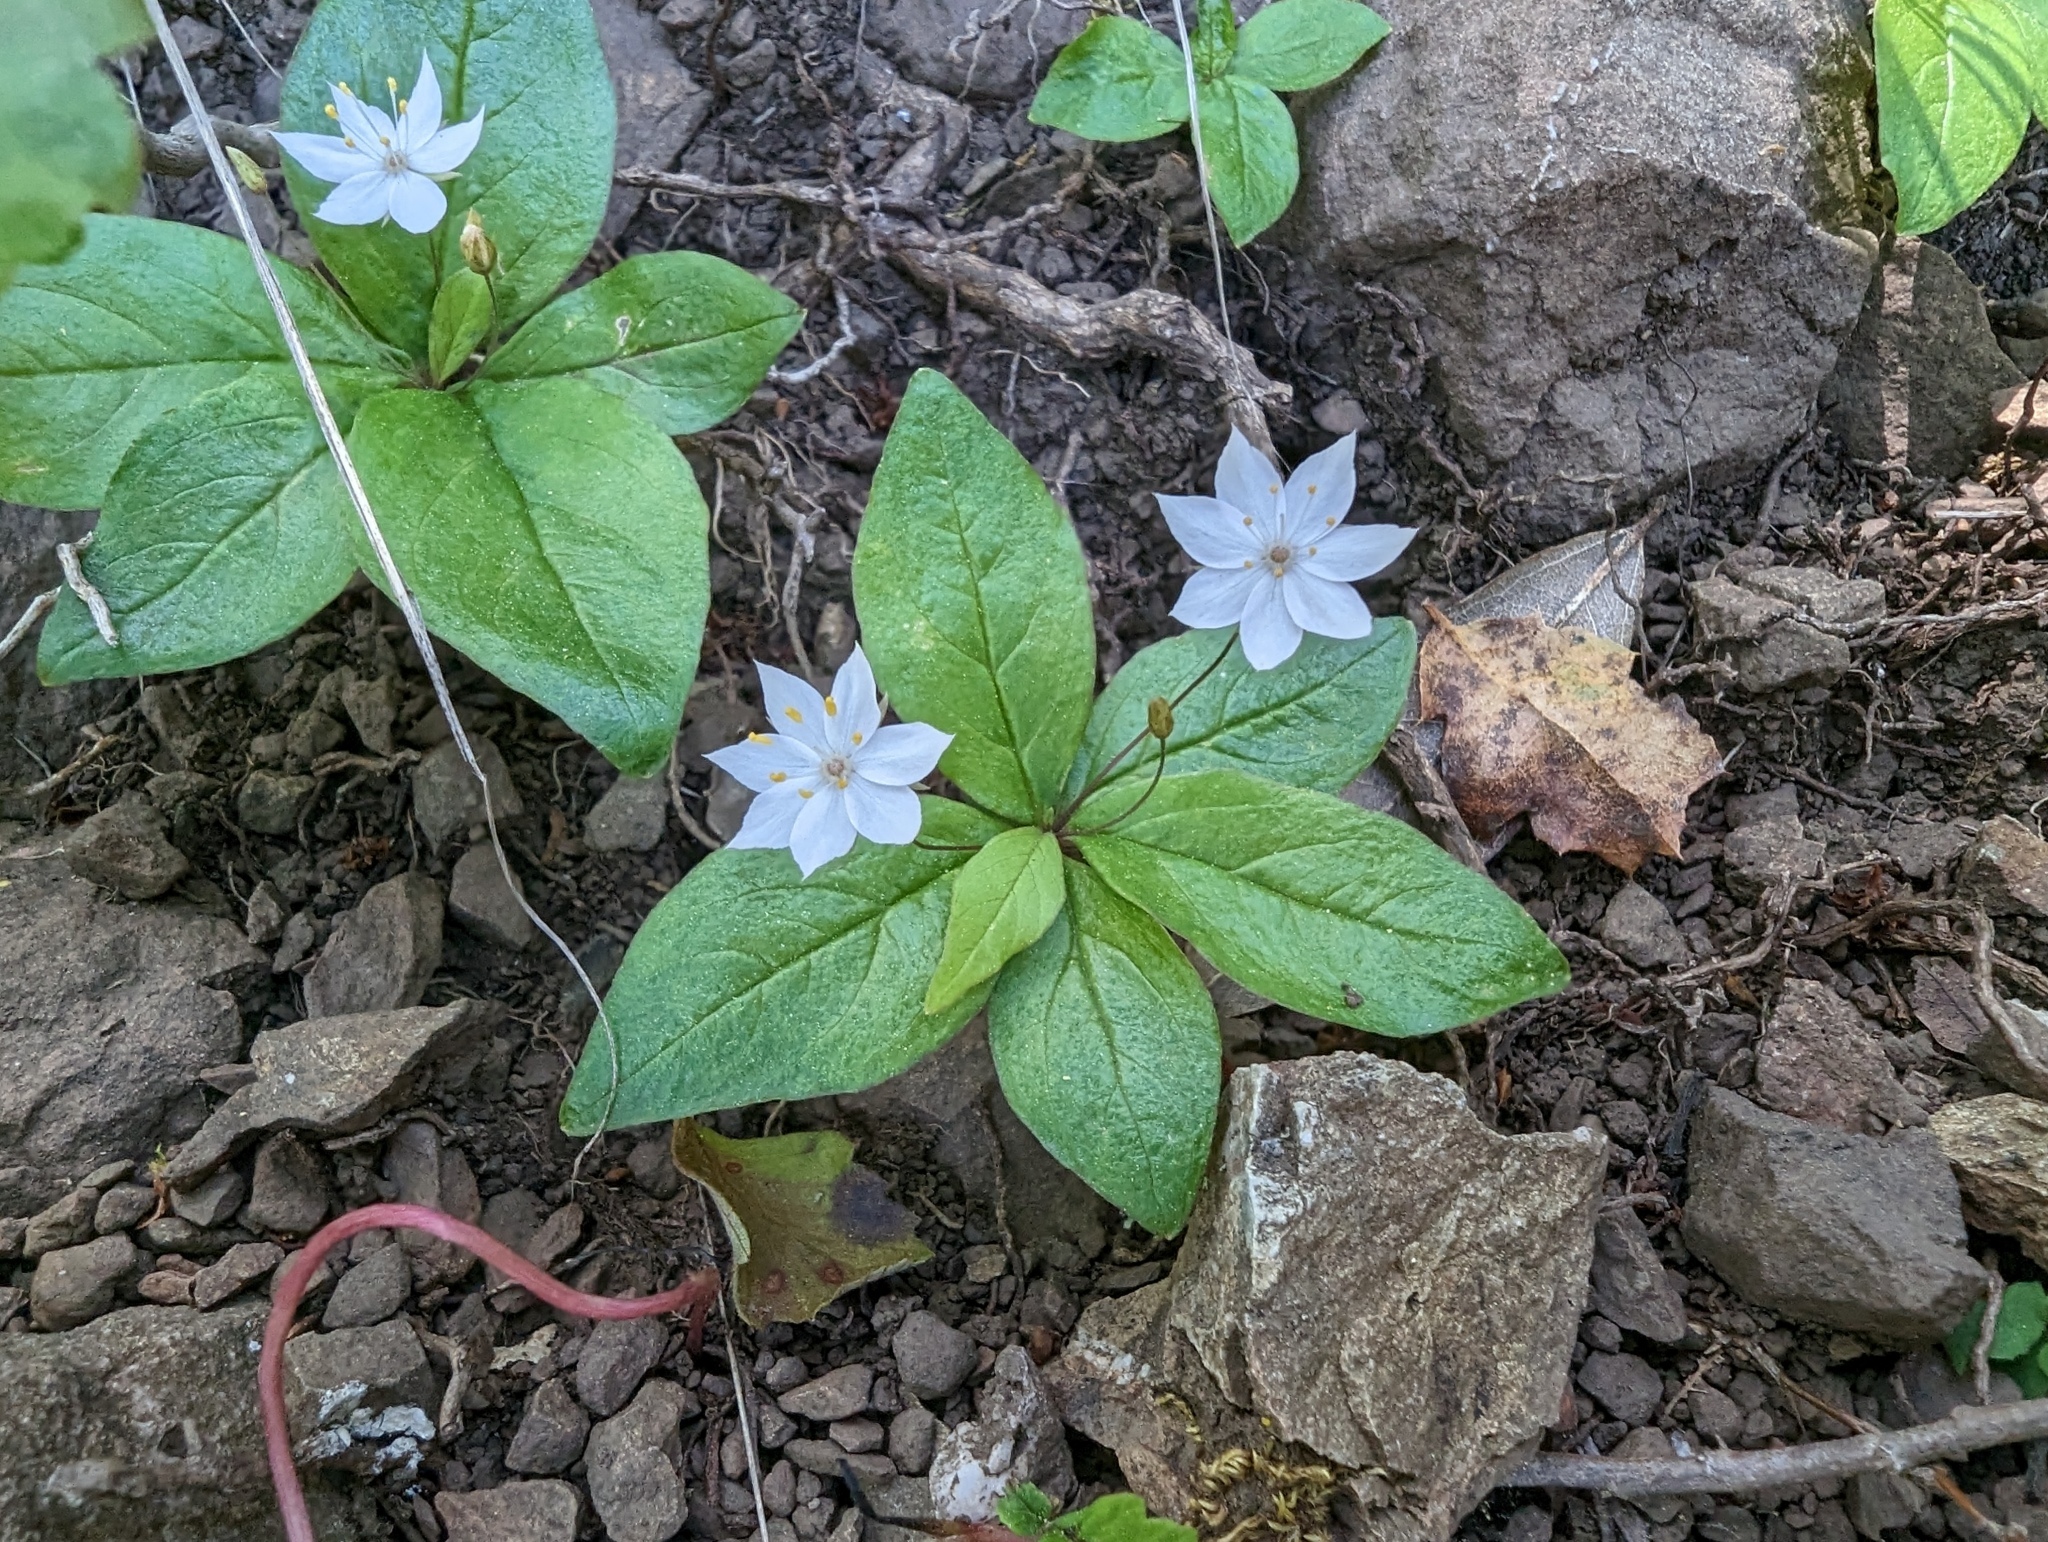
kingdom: Plantae
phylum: Tracheophyta
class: Magnoliopsida
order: Ericales
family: Primulaceae
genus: Lysimachia
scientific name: Lysimachia latifolia
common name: Pacific starflower
